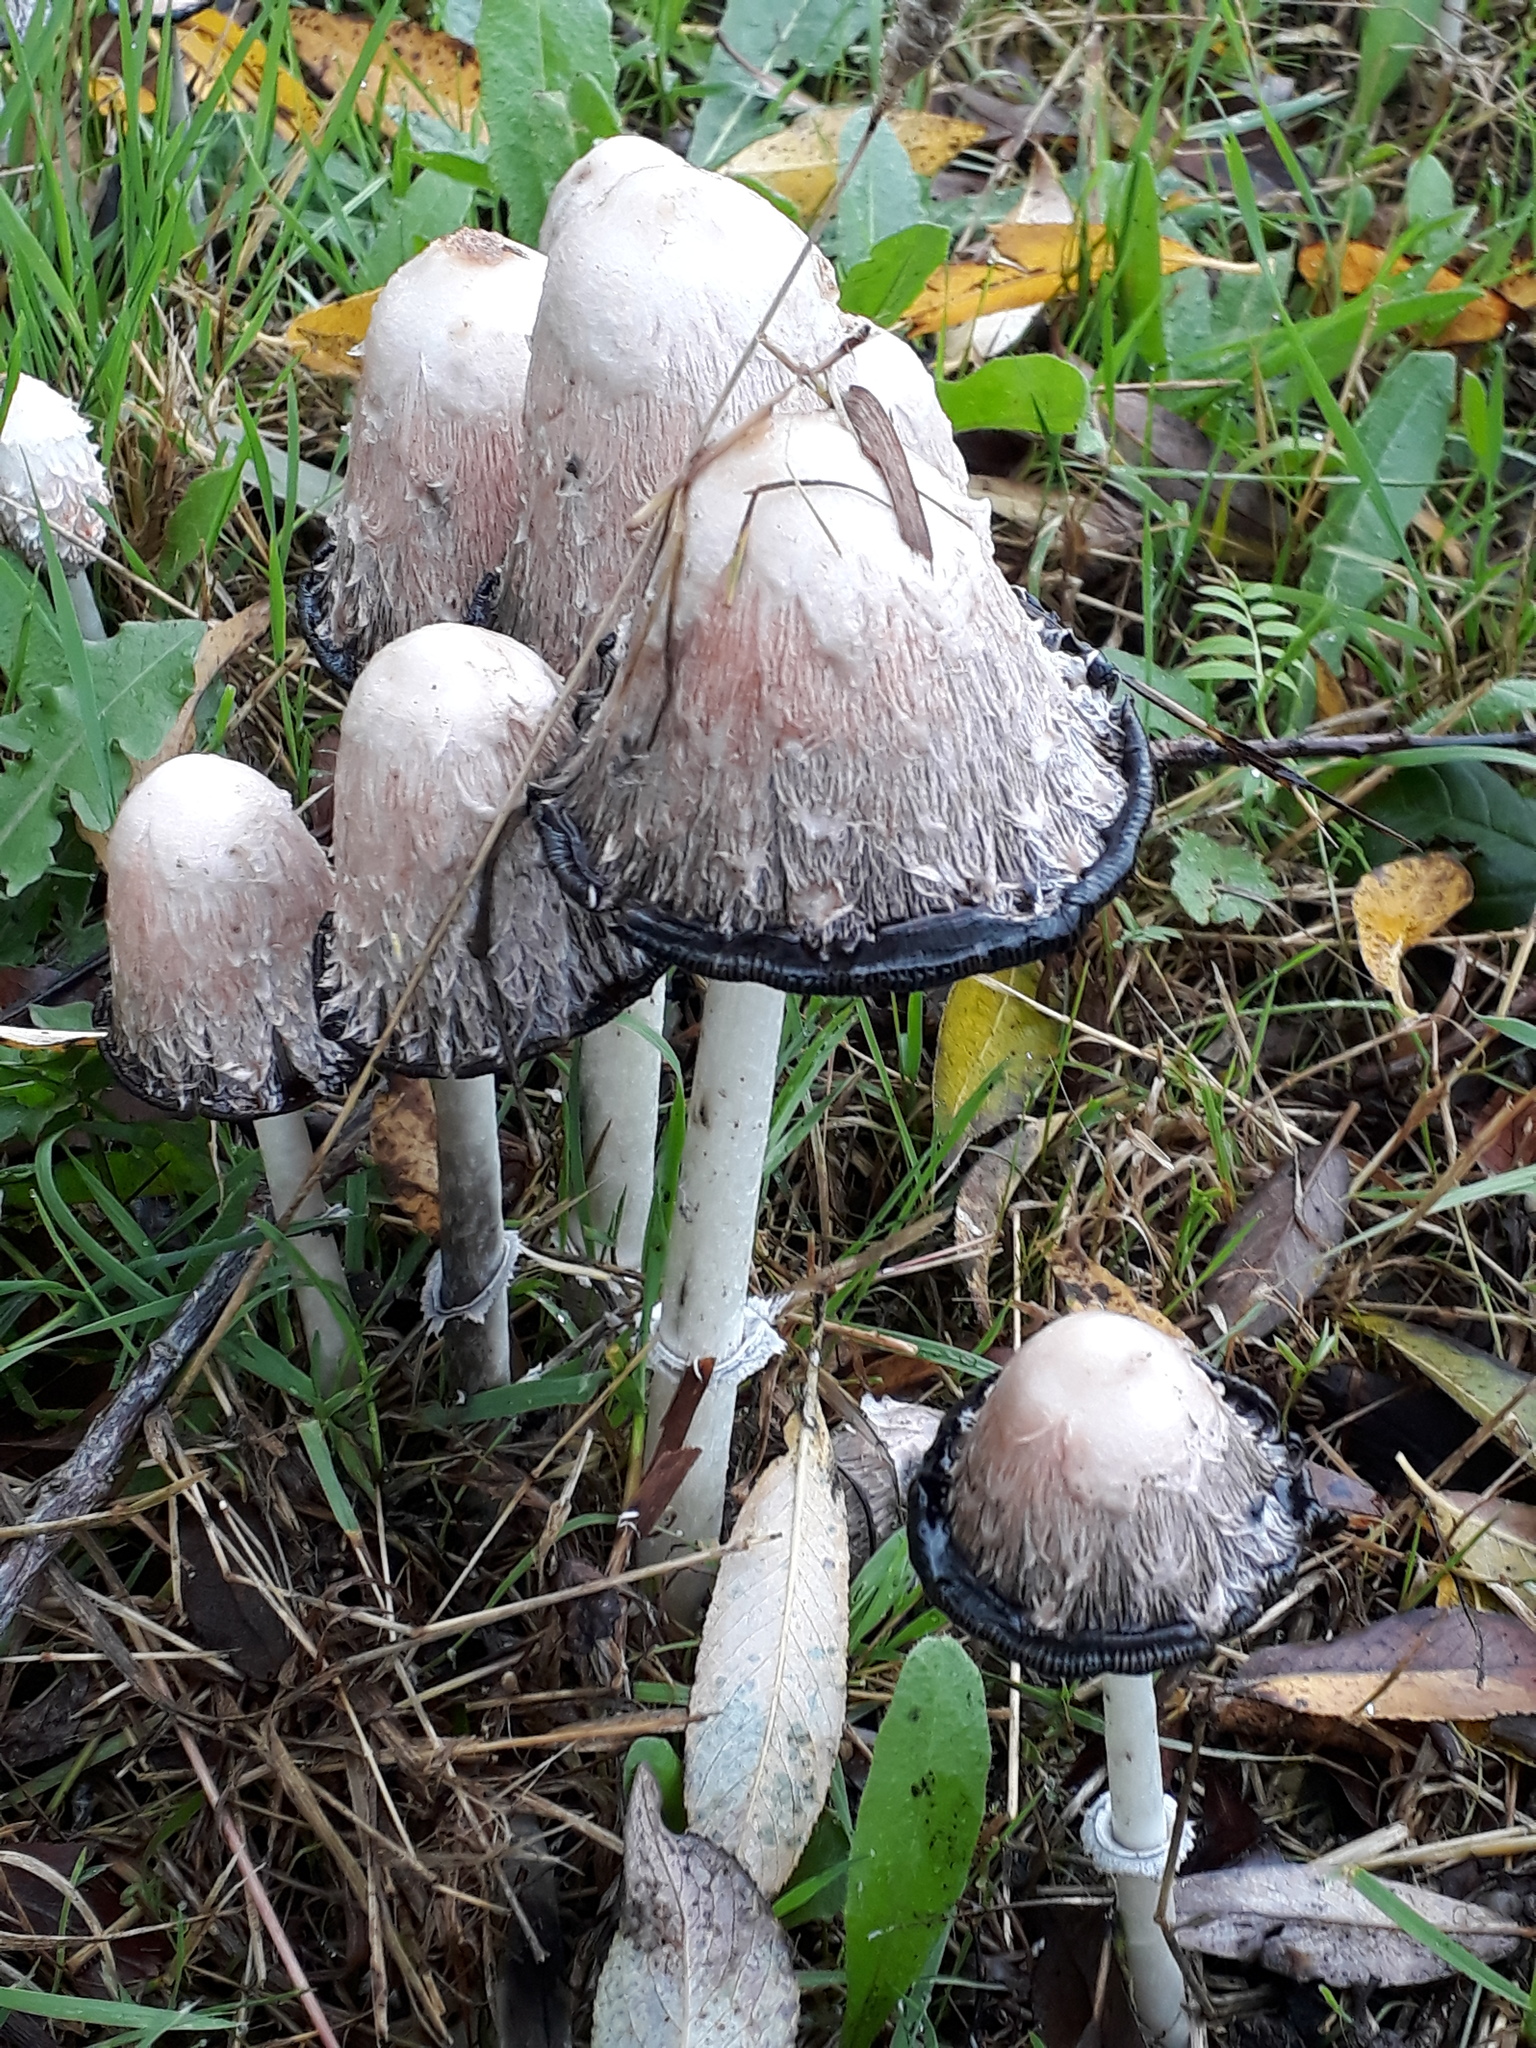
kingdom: Fungi
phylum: Basidiomycota
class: Agaricomycetes
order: Agaricales
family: Agaricaceae
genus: Coprinus
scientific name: Coprinus comatus
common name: Lawyer's wig
